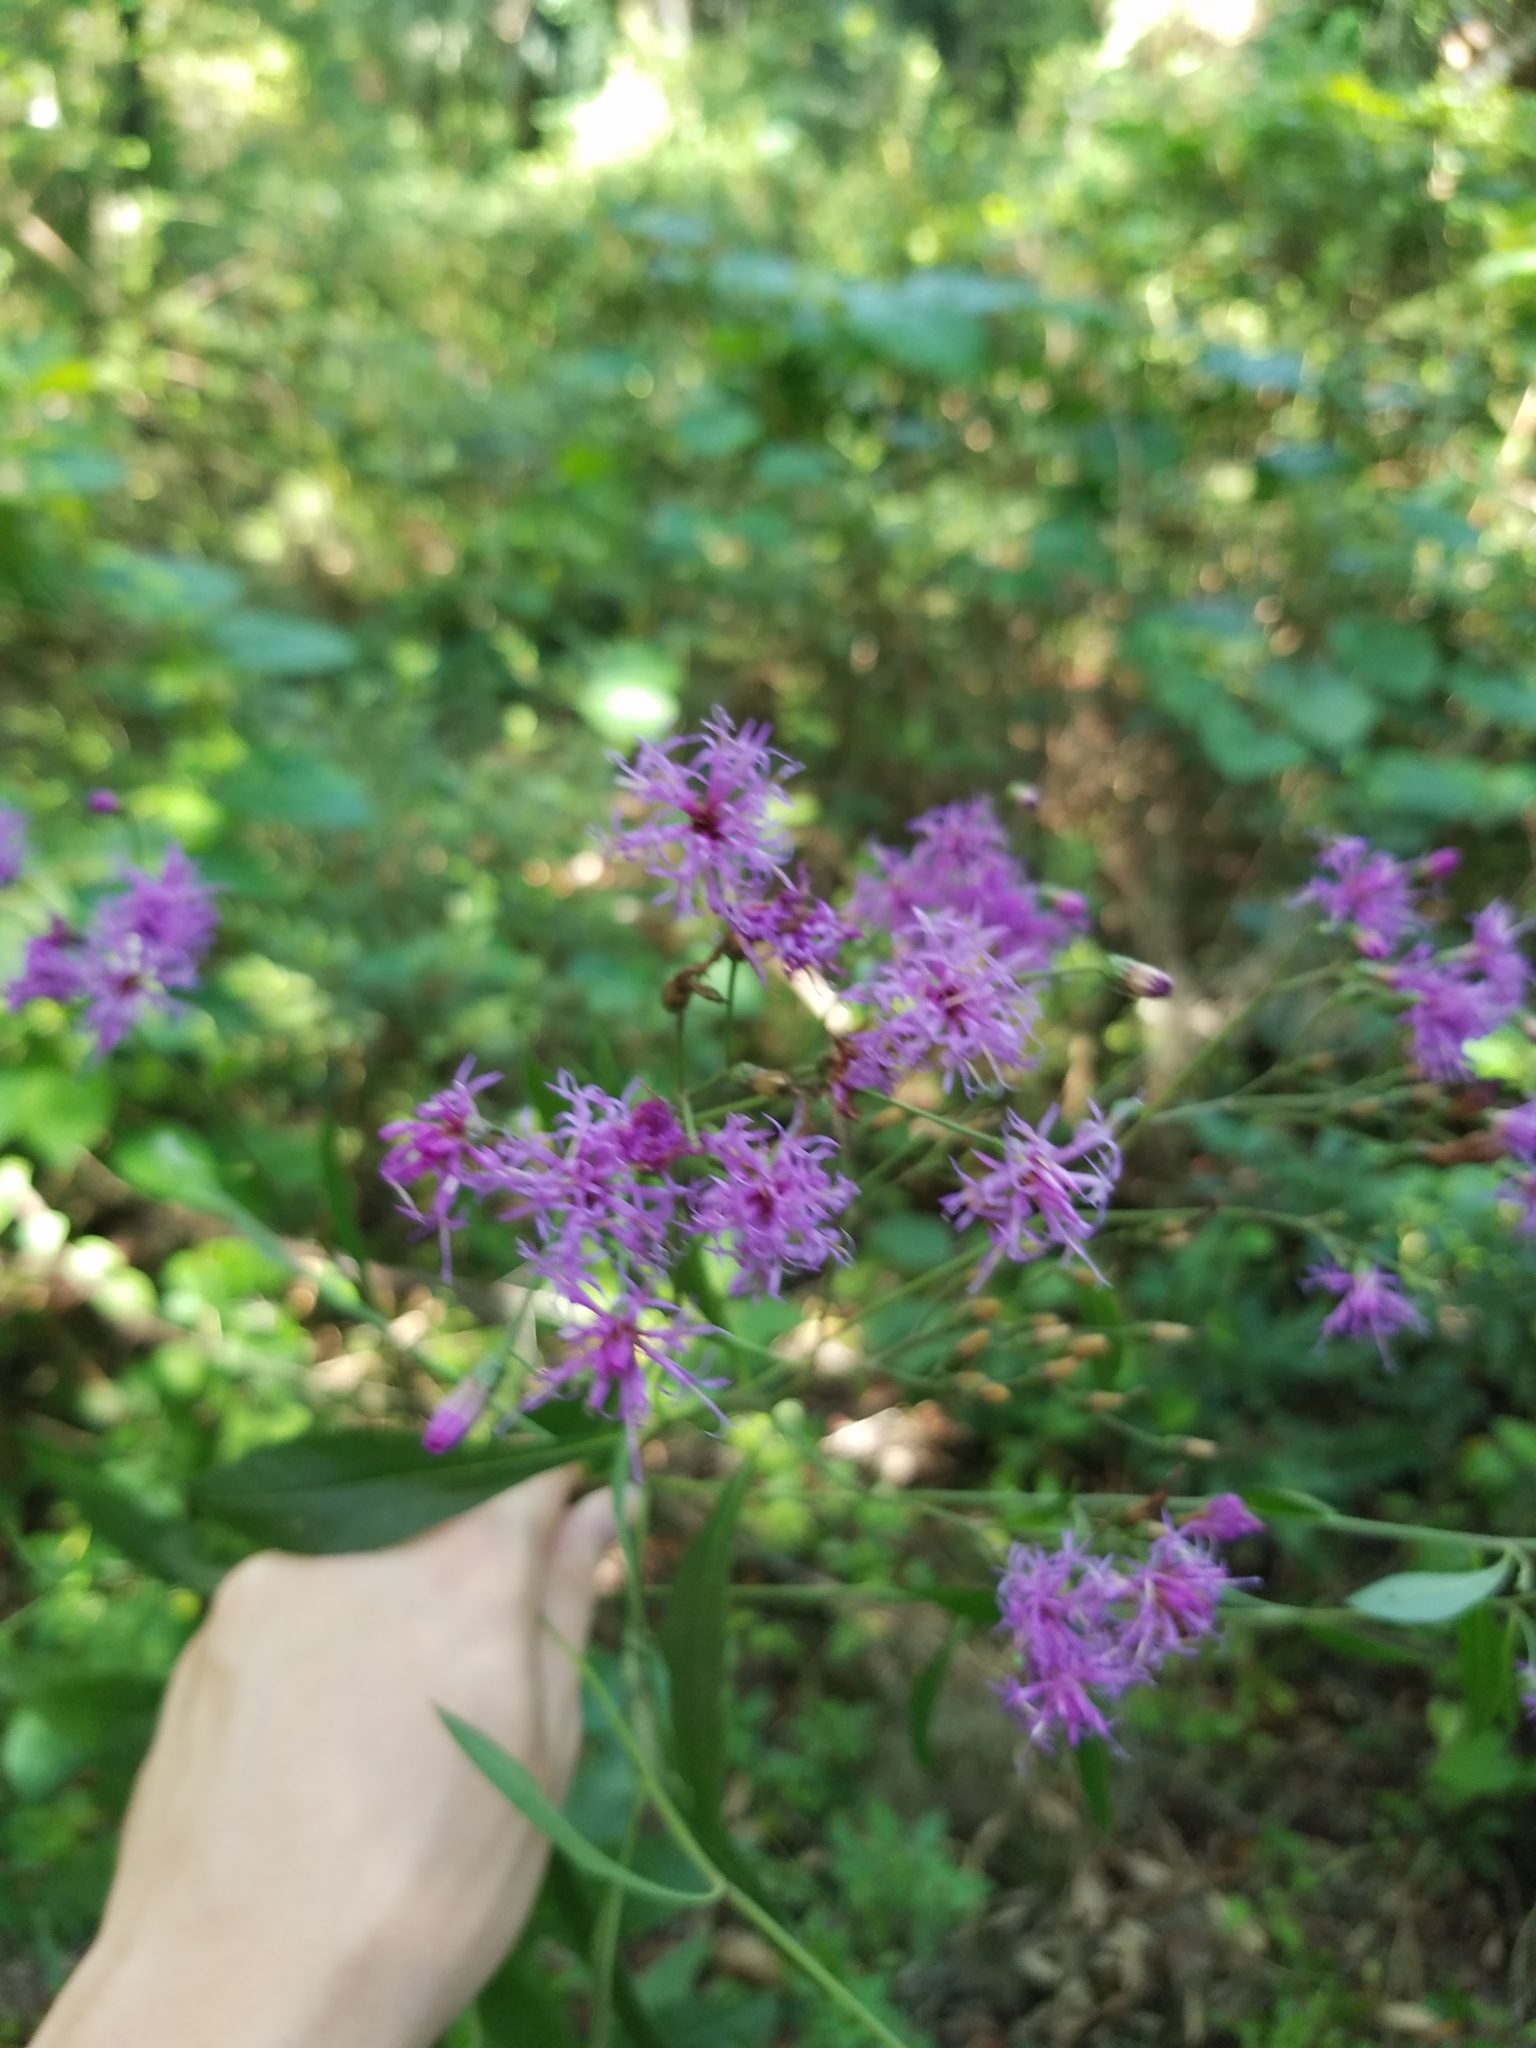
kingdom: Plantae
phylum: Tracheophyta
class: Magnoliopsida
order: Asterales
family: Asteraceae
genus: Vernonia
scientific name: Vernonia gigantea
